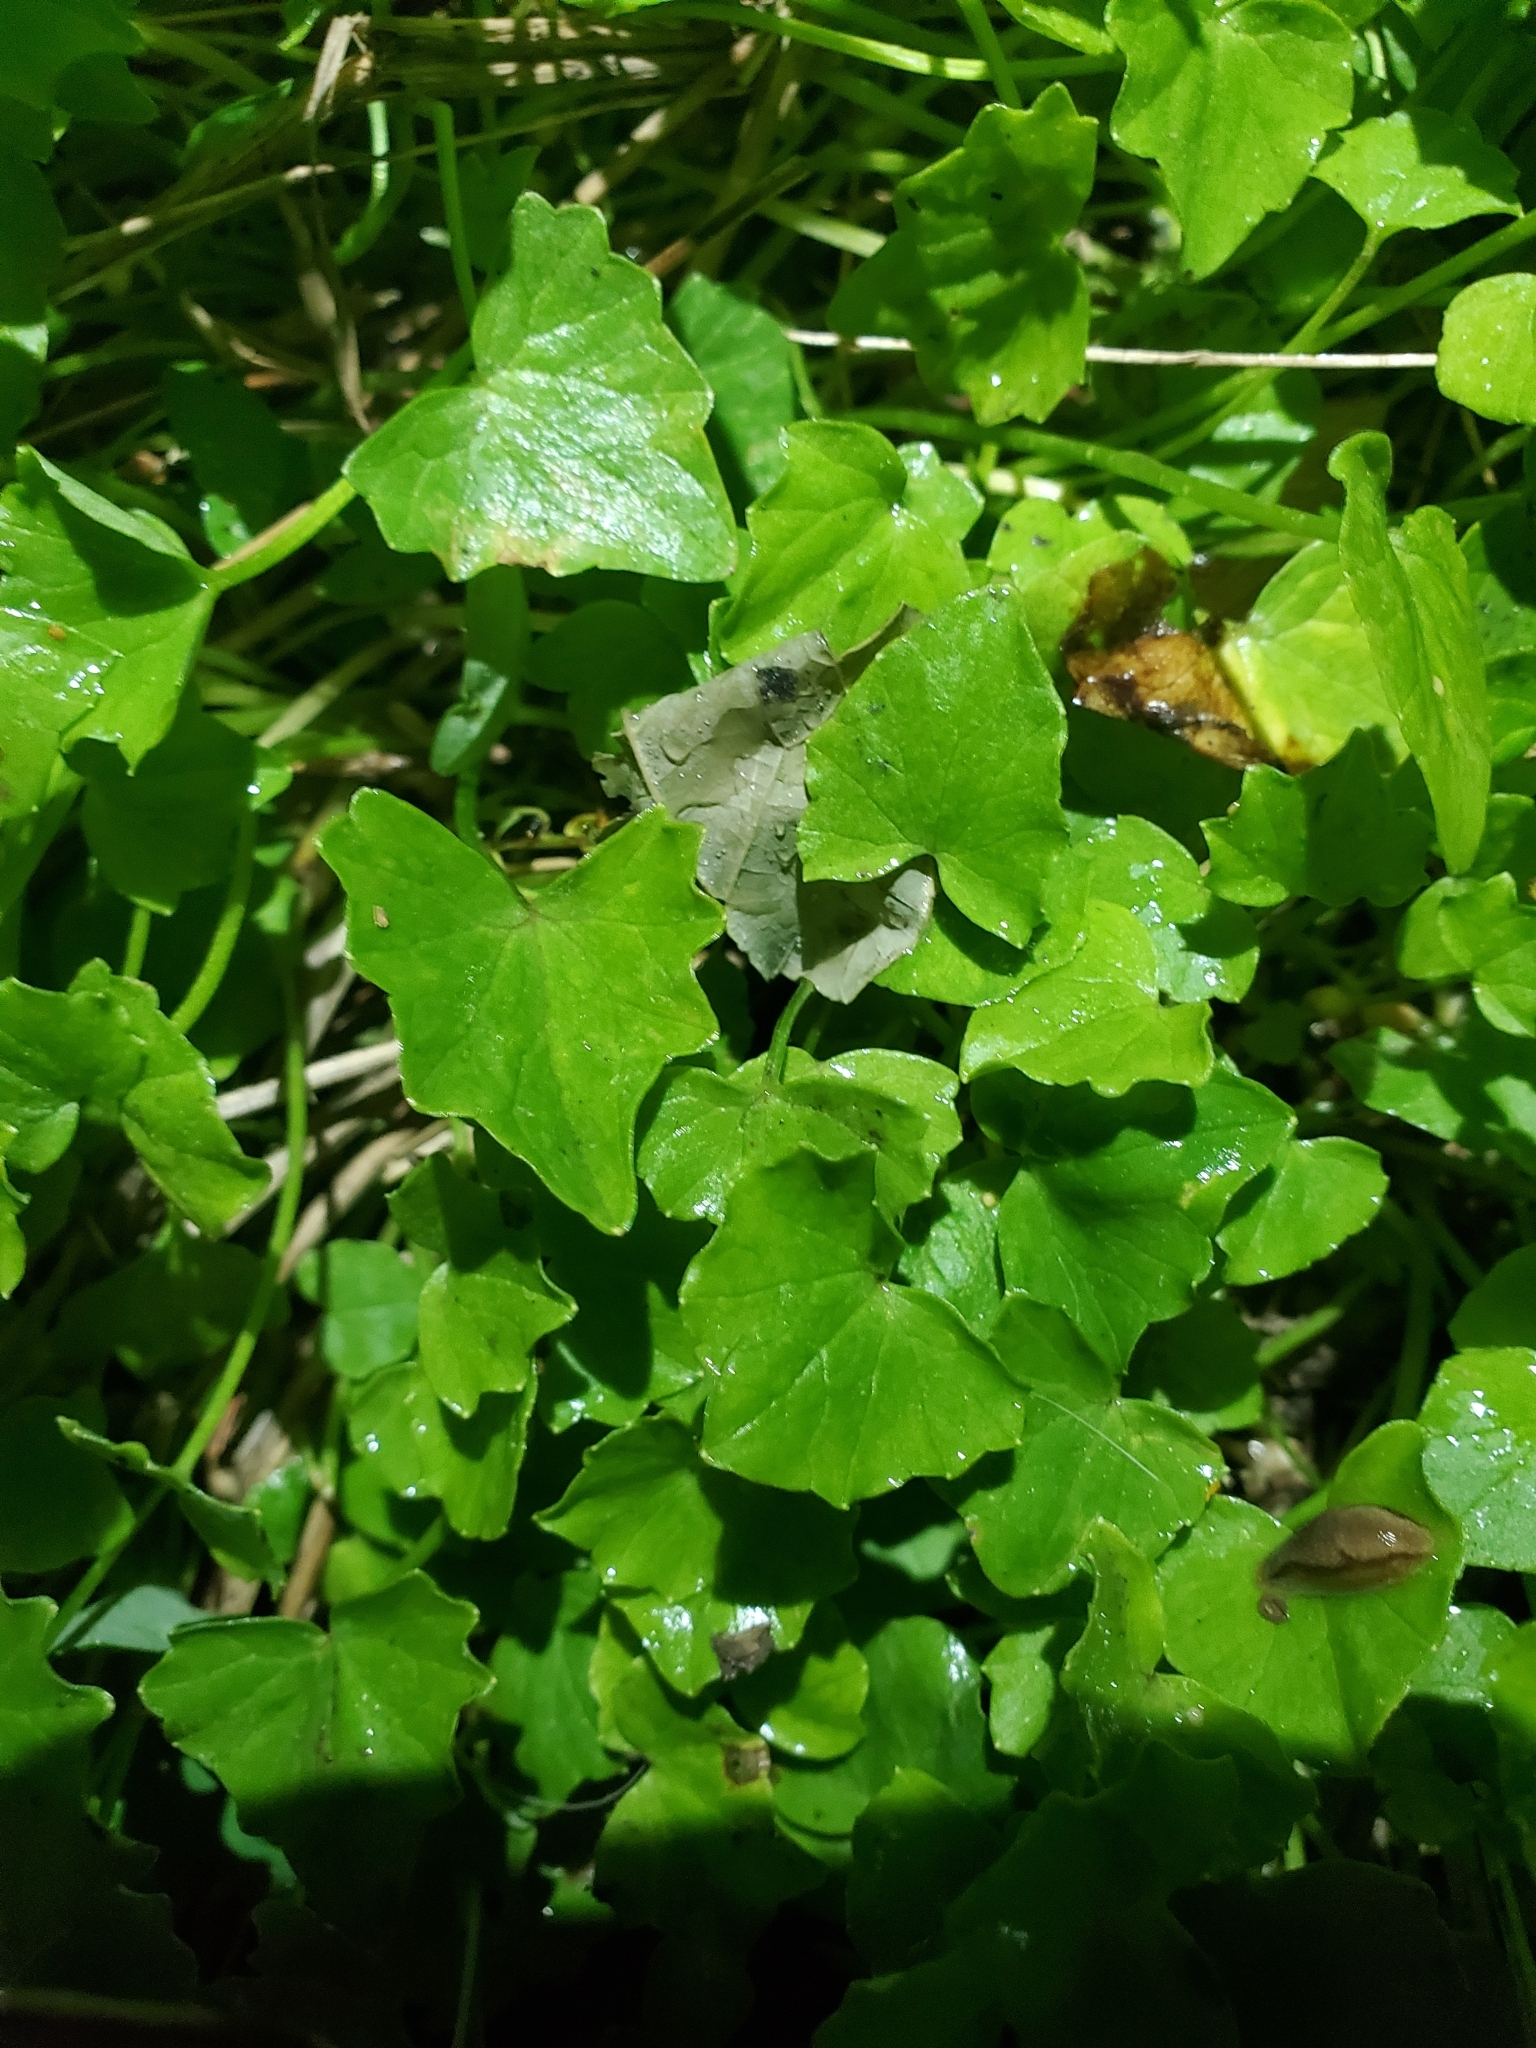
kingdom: Plantae
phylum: Tracheophyta
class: Magnoliopsida
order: Ranunculales
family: Ranunculaceae
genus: Ficaria
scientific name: Ficaria verna
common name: Lesser celandine
